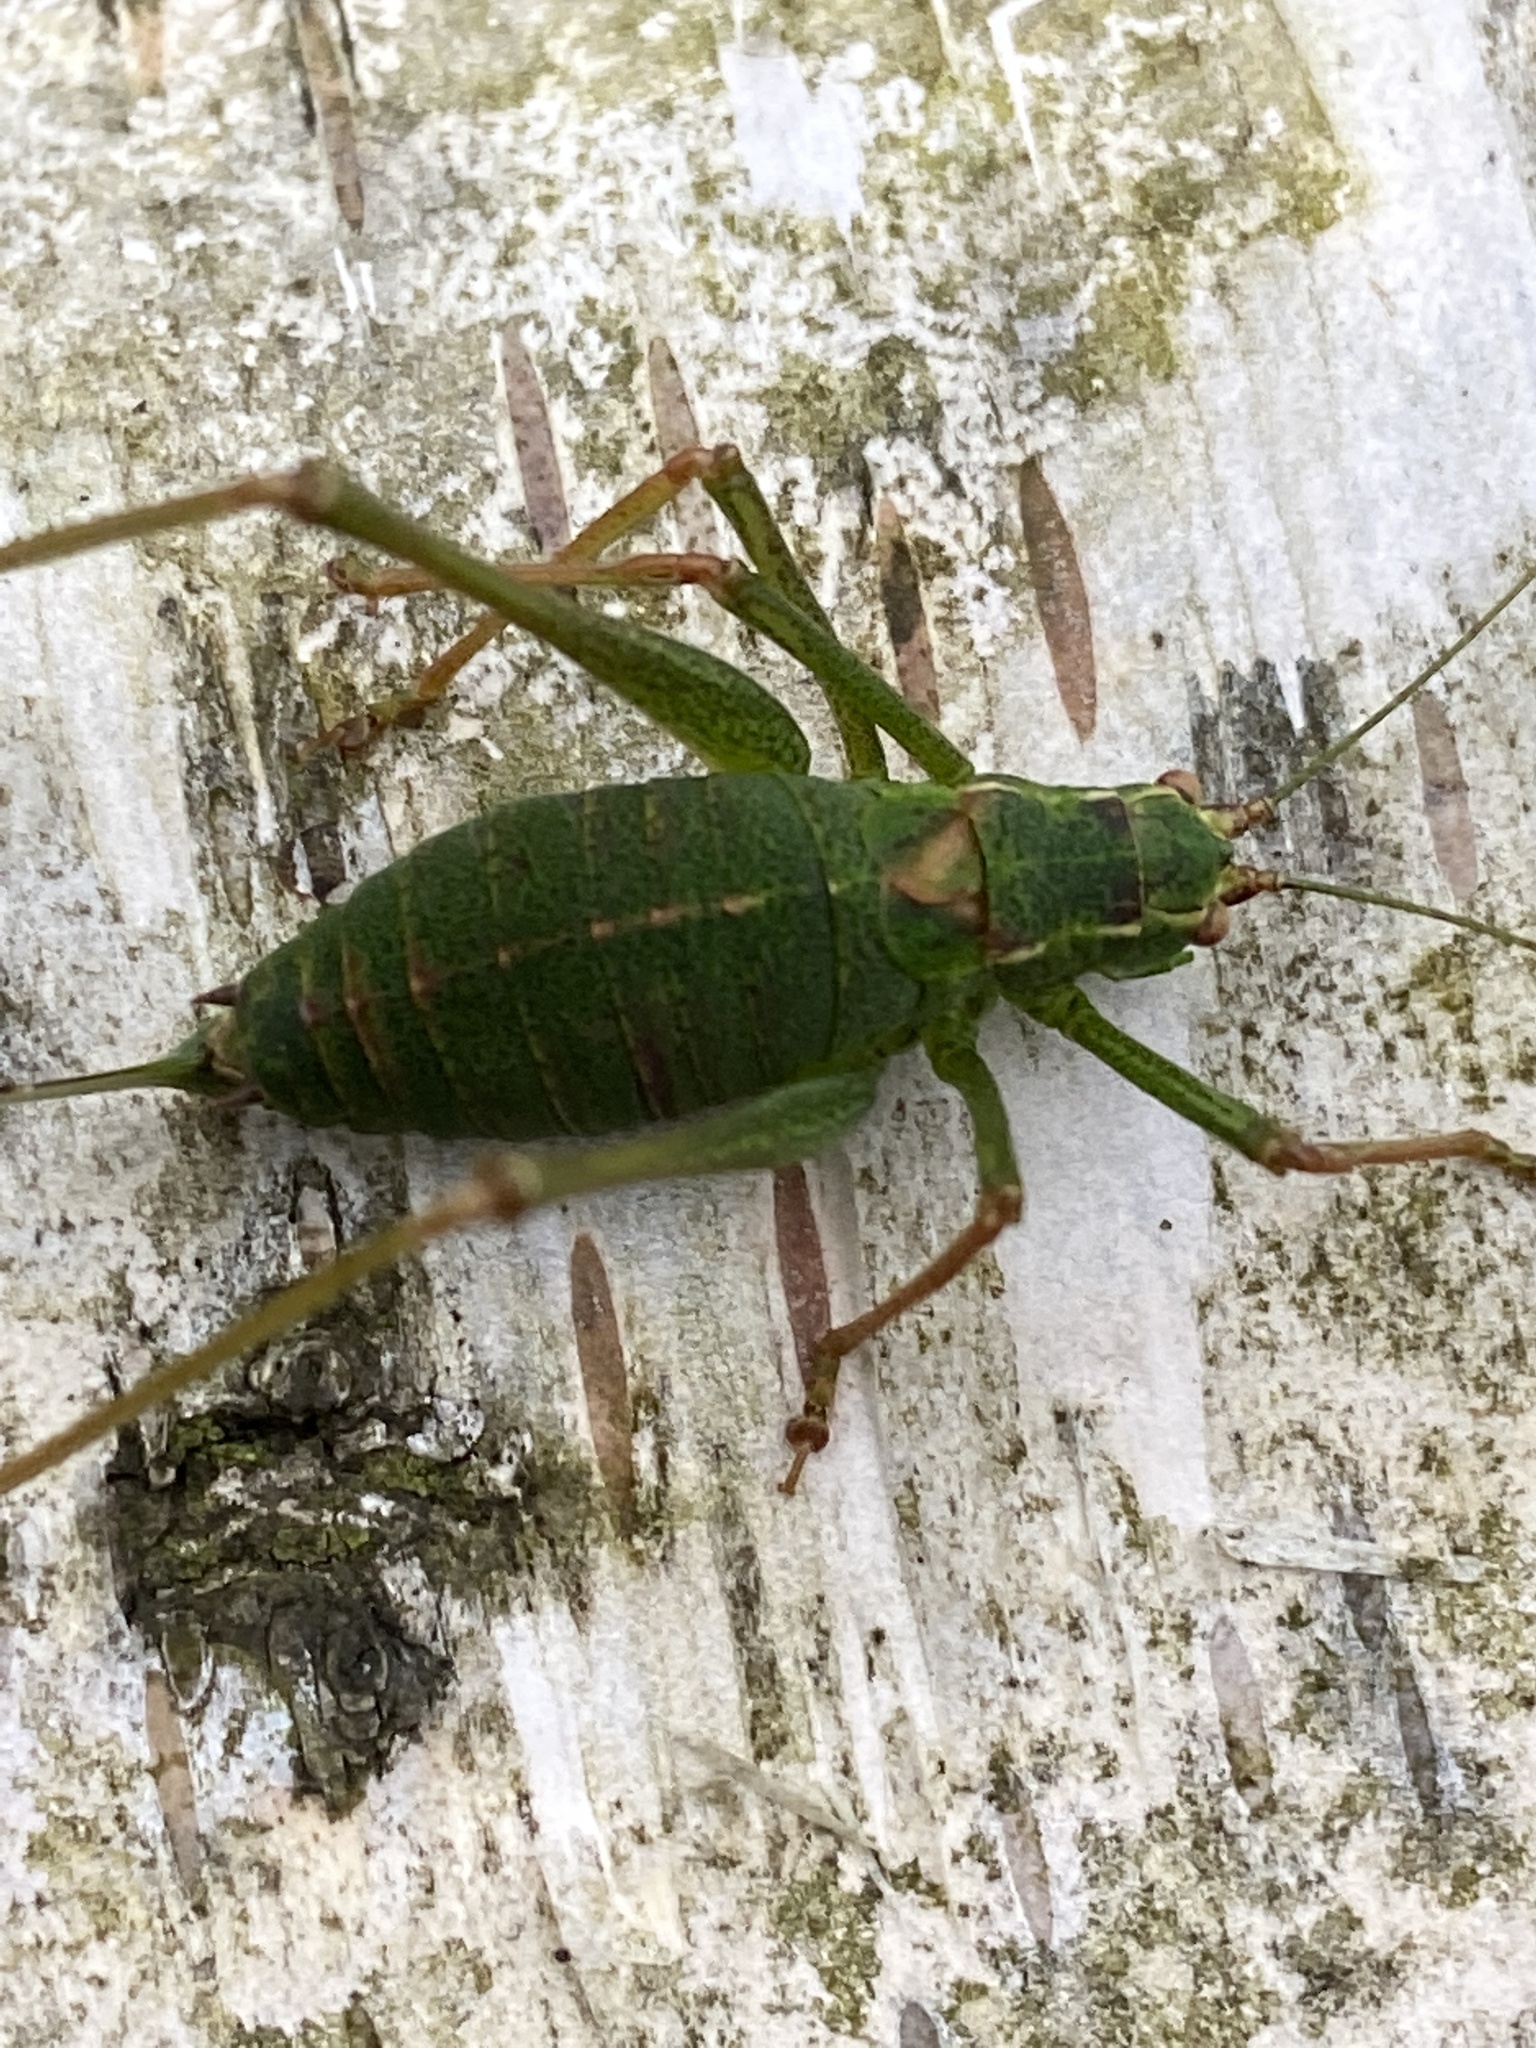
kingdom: Animalia
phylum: Arthropoda
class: Insecta
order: Orthoptera
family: Tettigoniidae
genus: Leptophyes
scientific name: Leptophyes punctatissima
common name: Speckled bush-cricket
